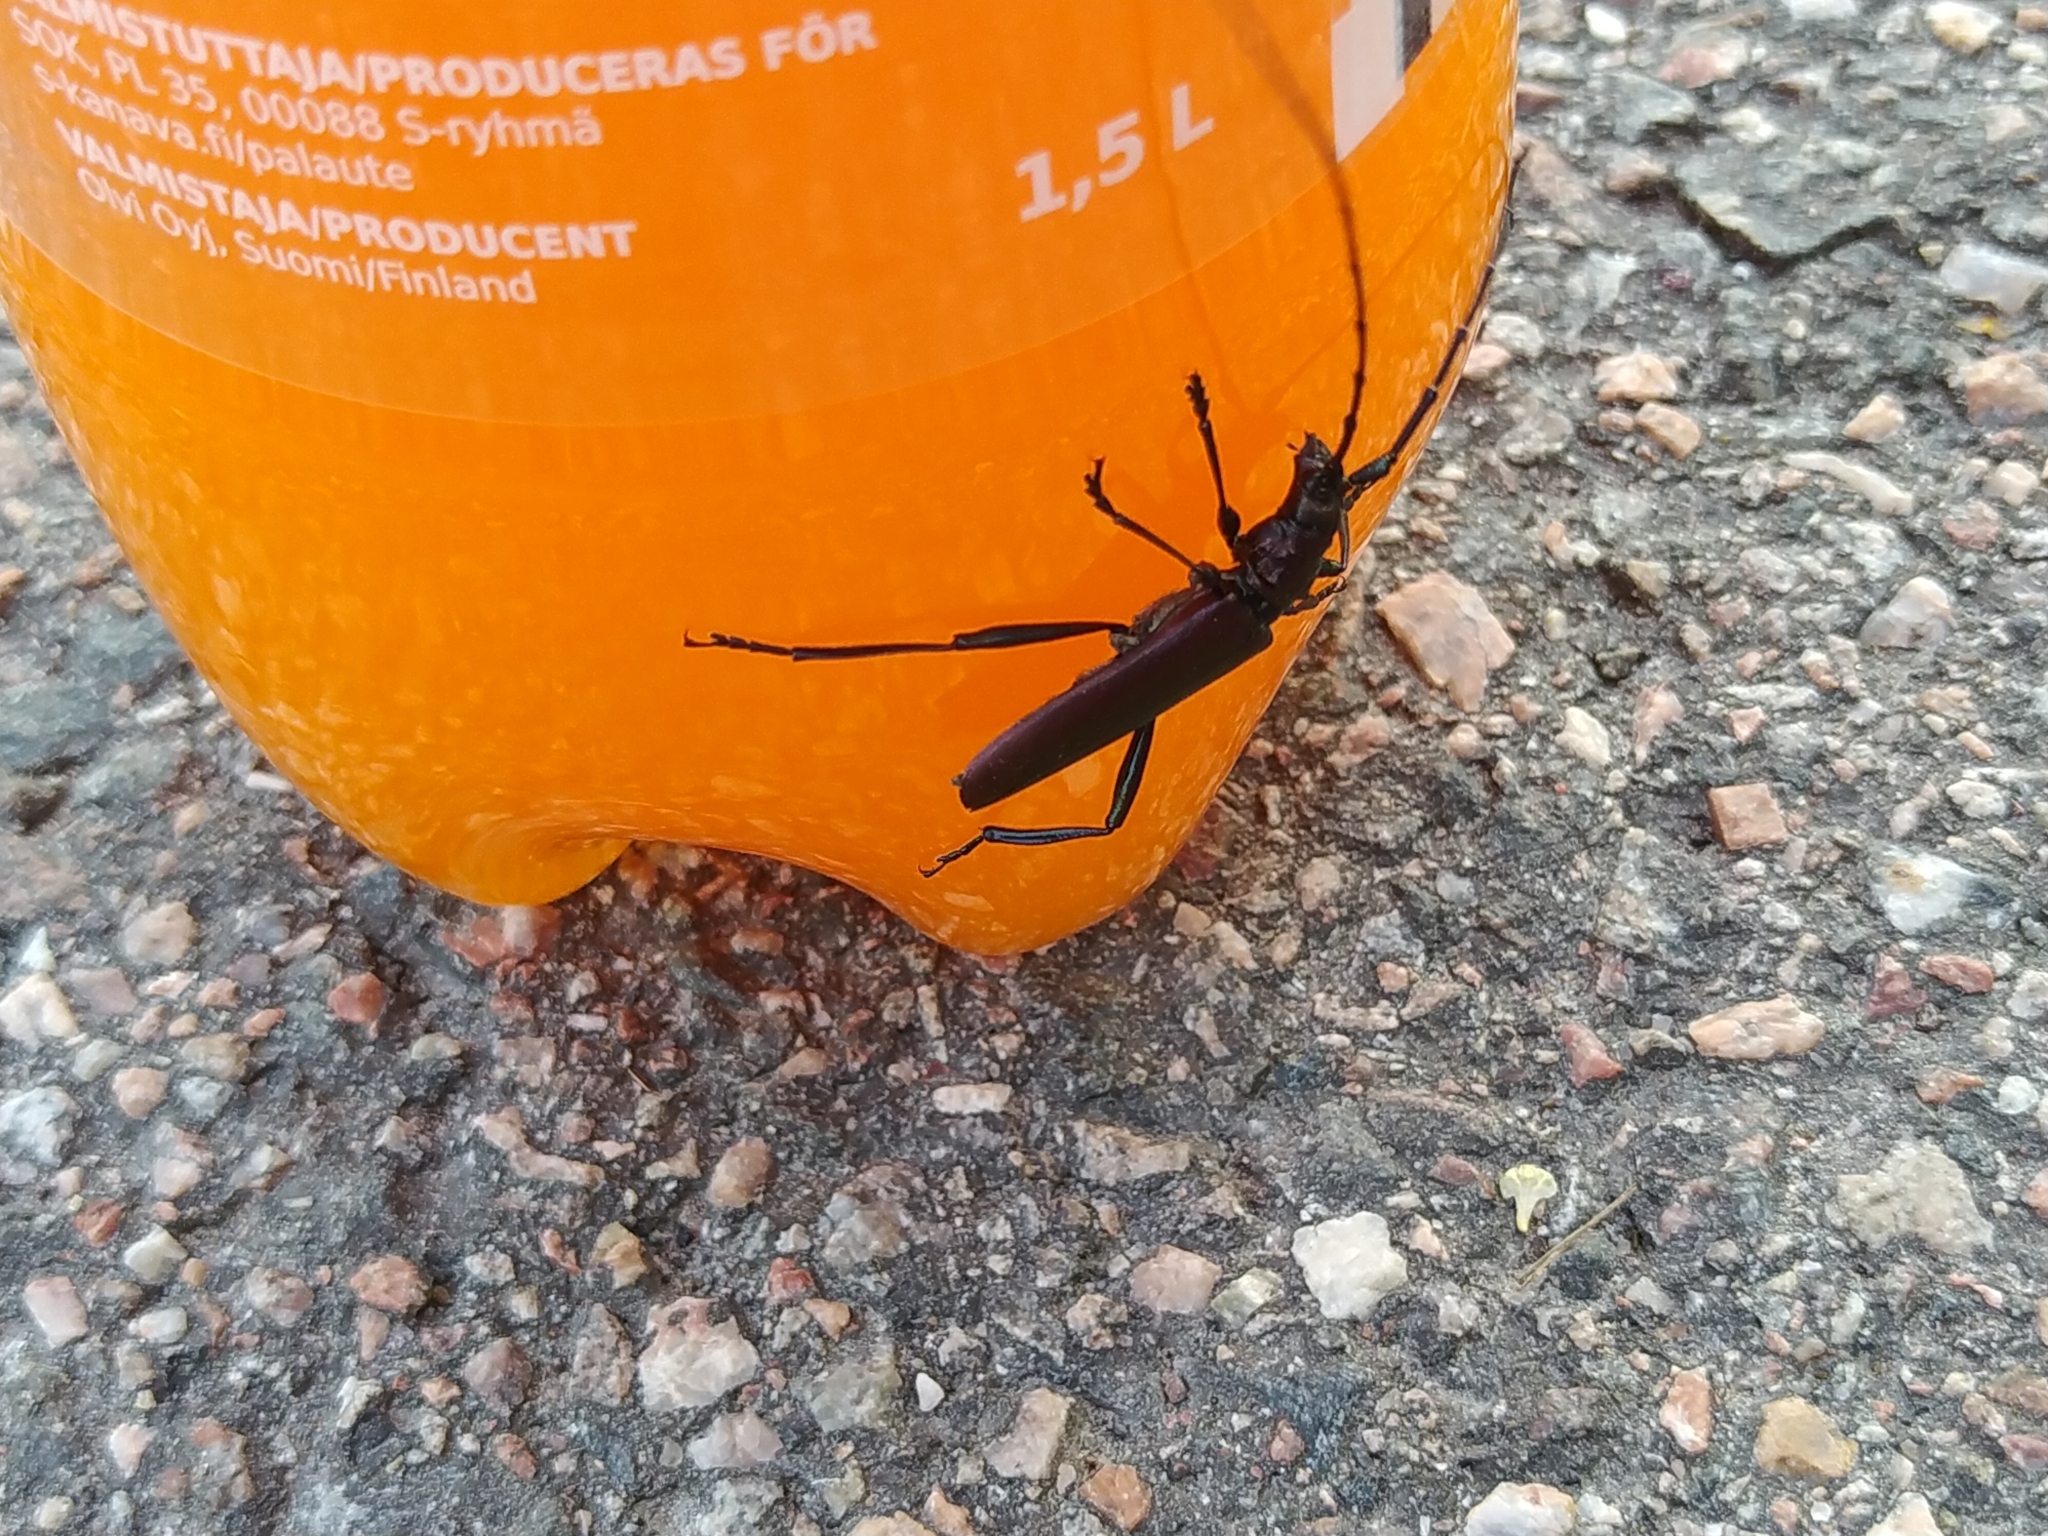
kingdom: Animalia
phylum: Arthropoda
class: Insecta
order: Coleoptera
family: Cerambycidae
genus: Aromia
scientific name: Aromia moschata
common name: Musk beetle
